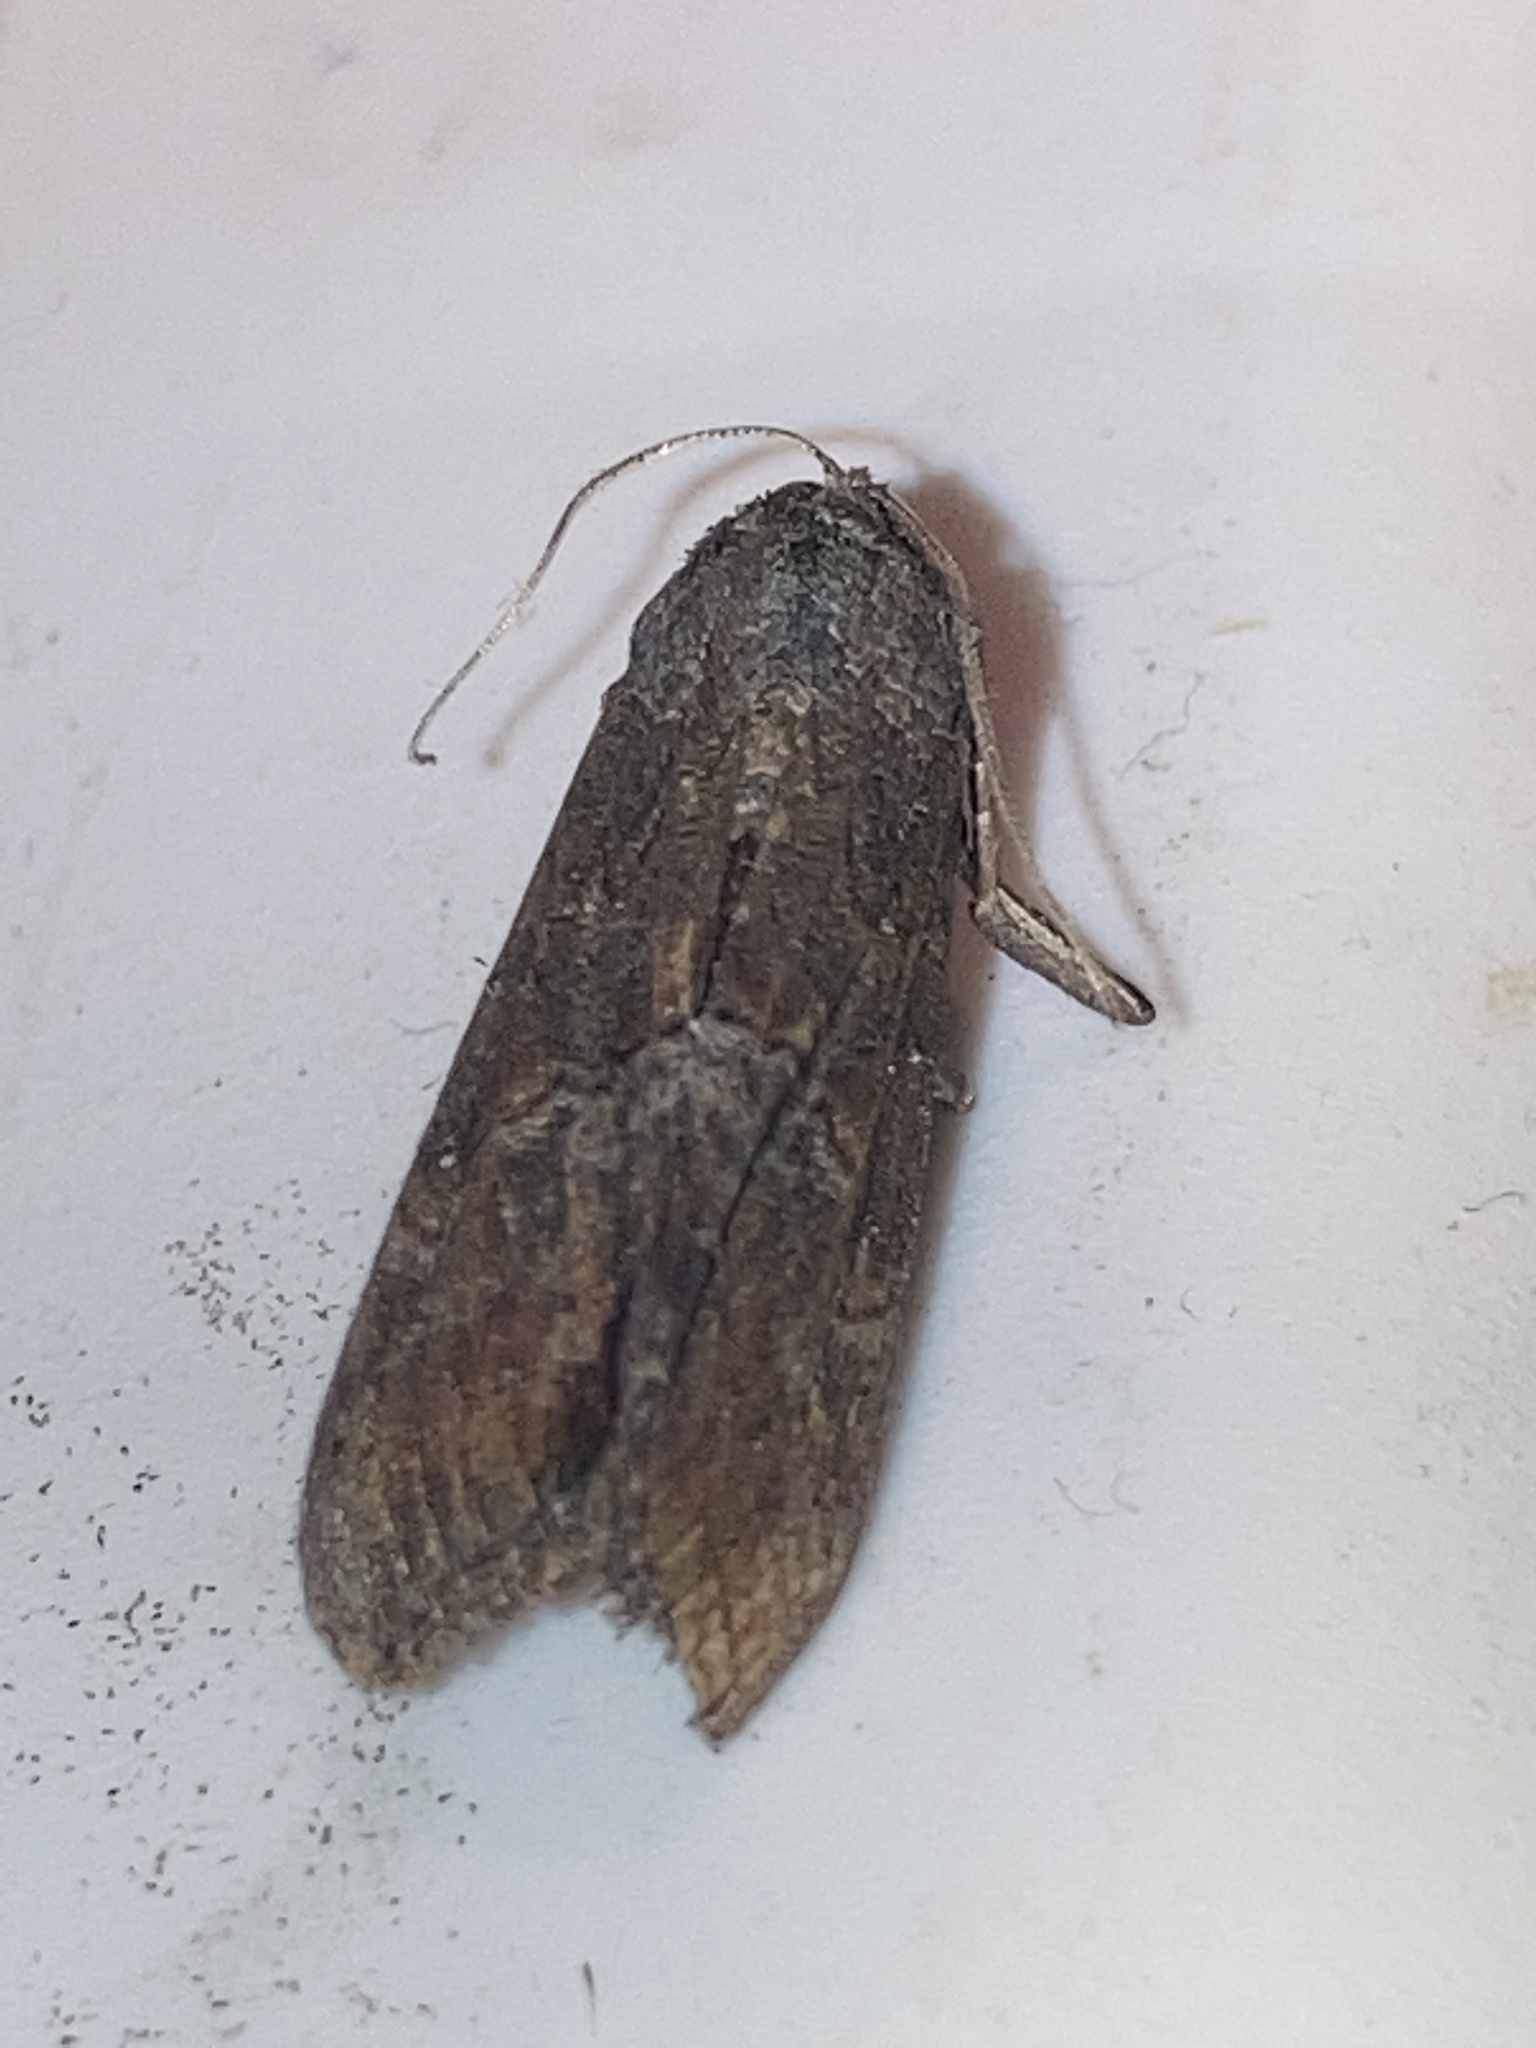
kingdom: Animalia
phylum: Arthropoda
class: Insecta
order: Lepidoptera
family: Erebidae
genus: Hypena
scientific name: Hypena scabra
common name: Green cloverworm
